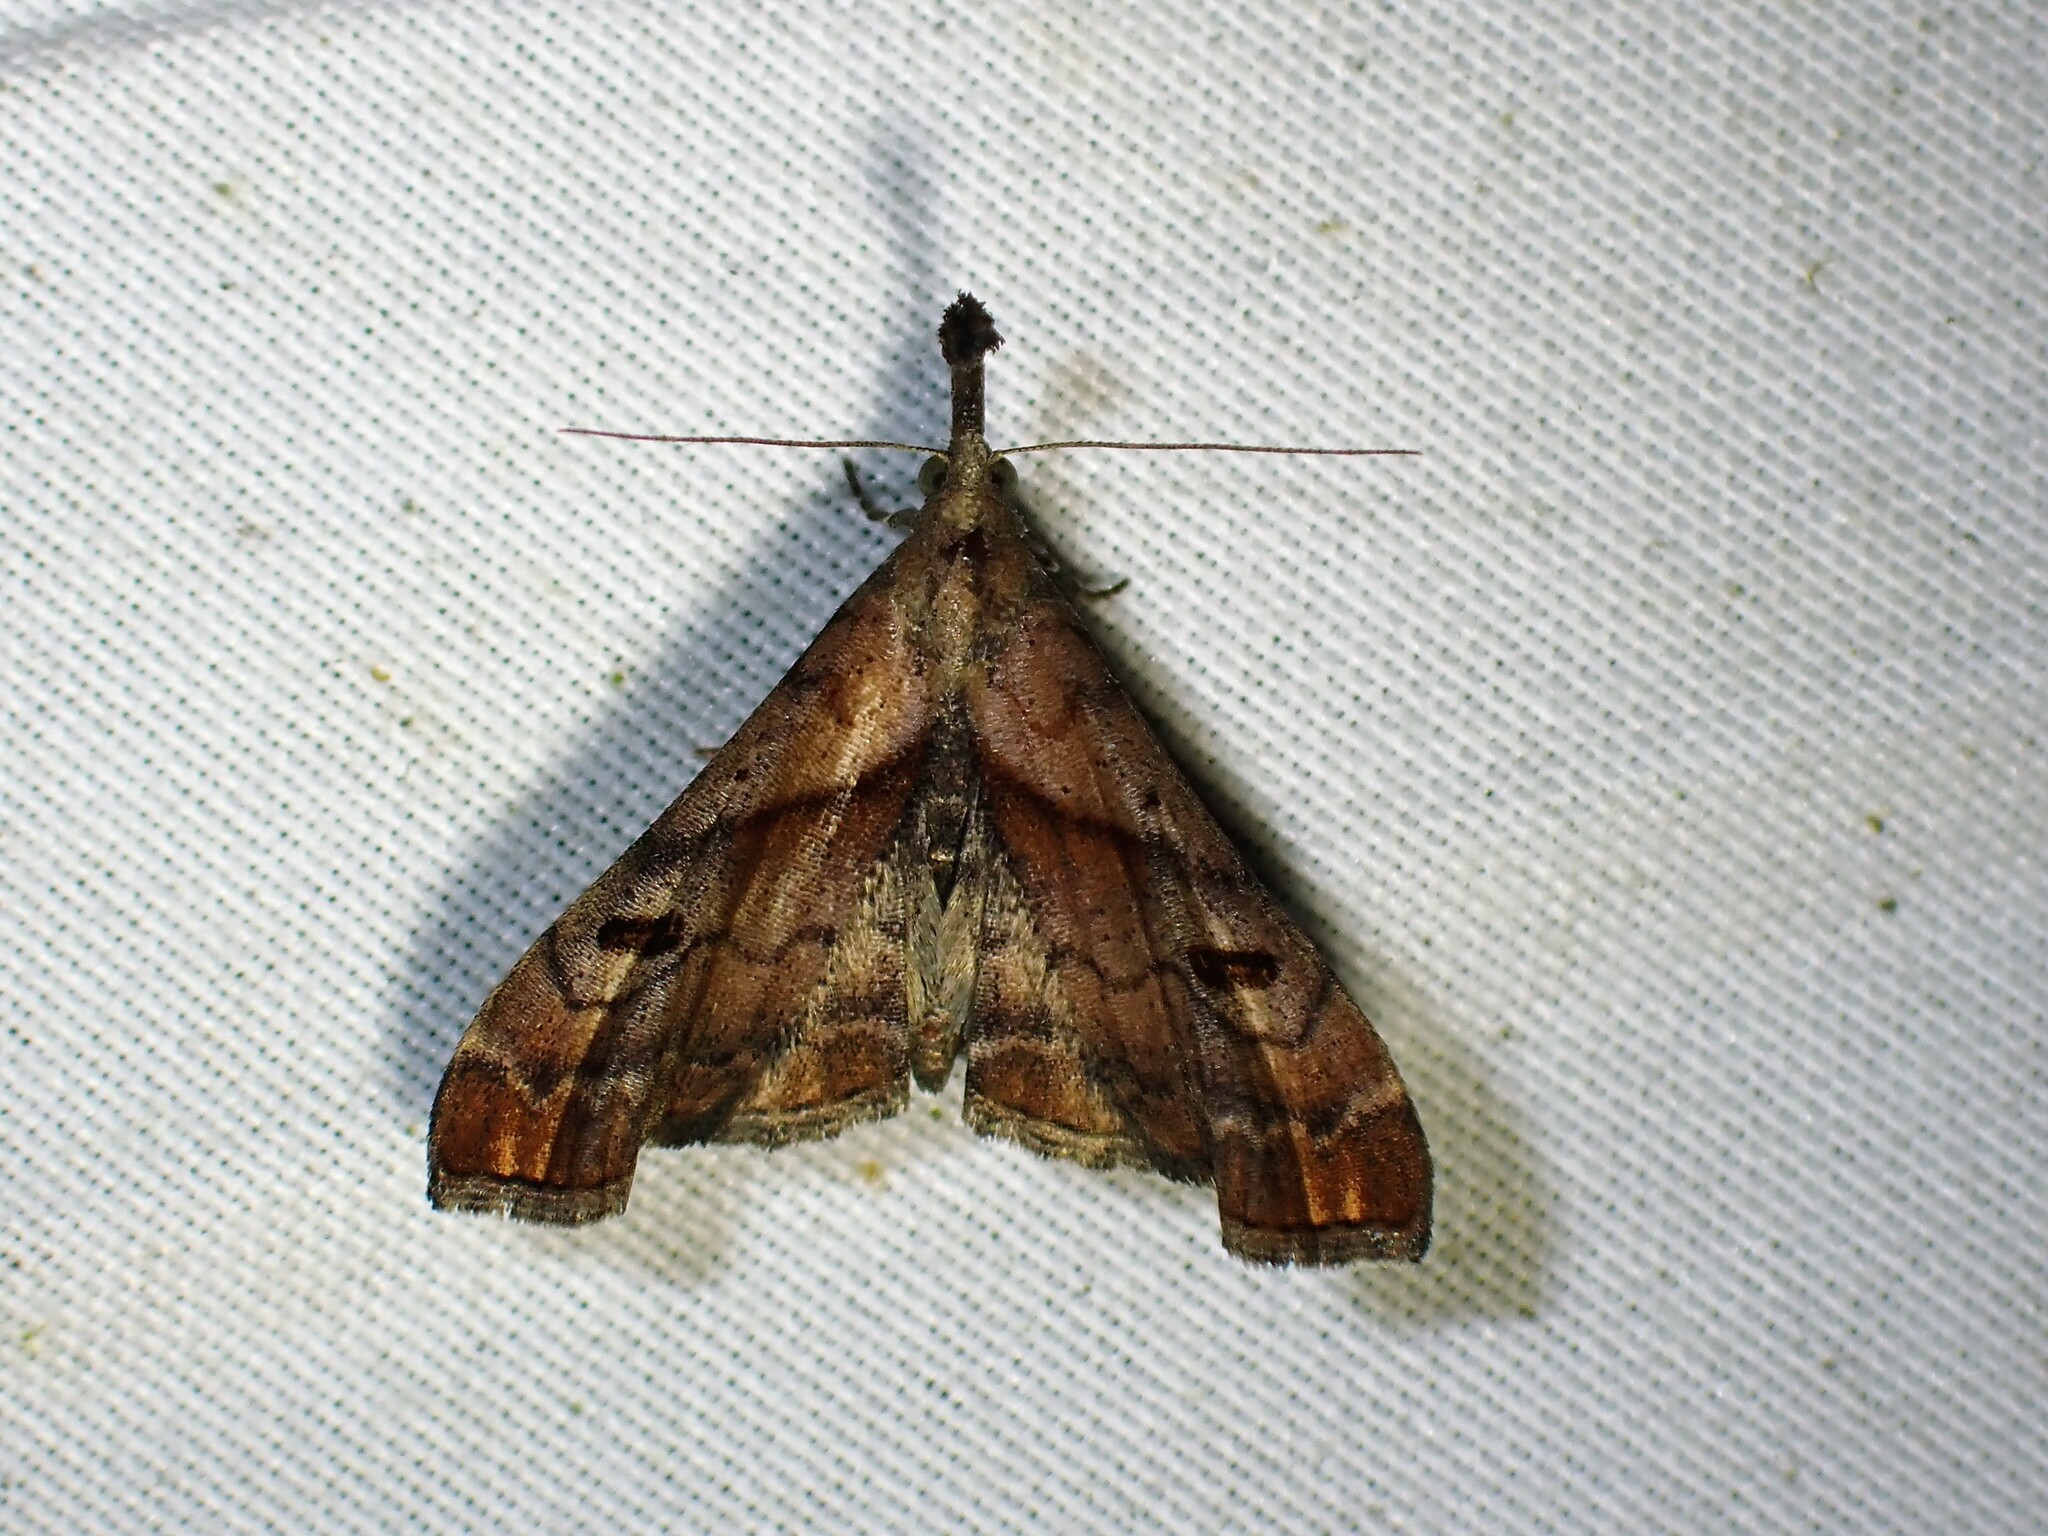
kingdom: Animalia
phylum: Arthropoda
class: Insecta
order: Lepidoptera
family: Erebidae
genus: Palthis
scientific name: Palthis angulalis
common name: Dark-spotted palthis moth
